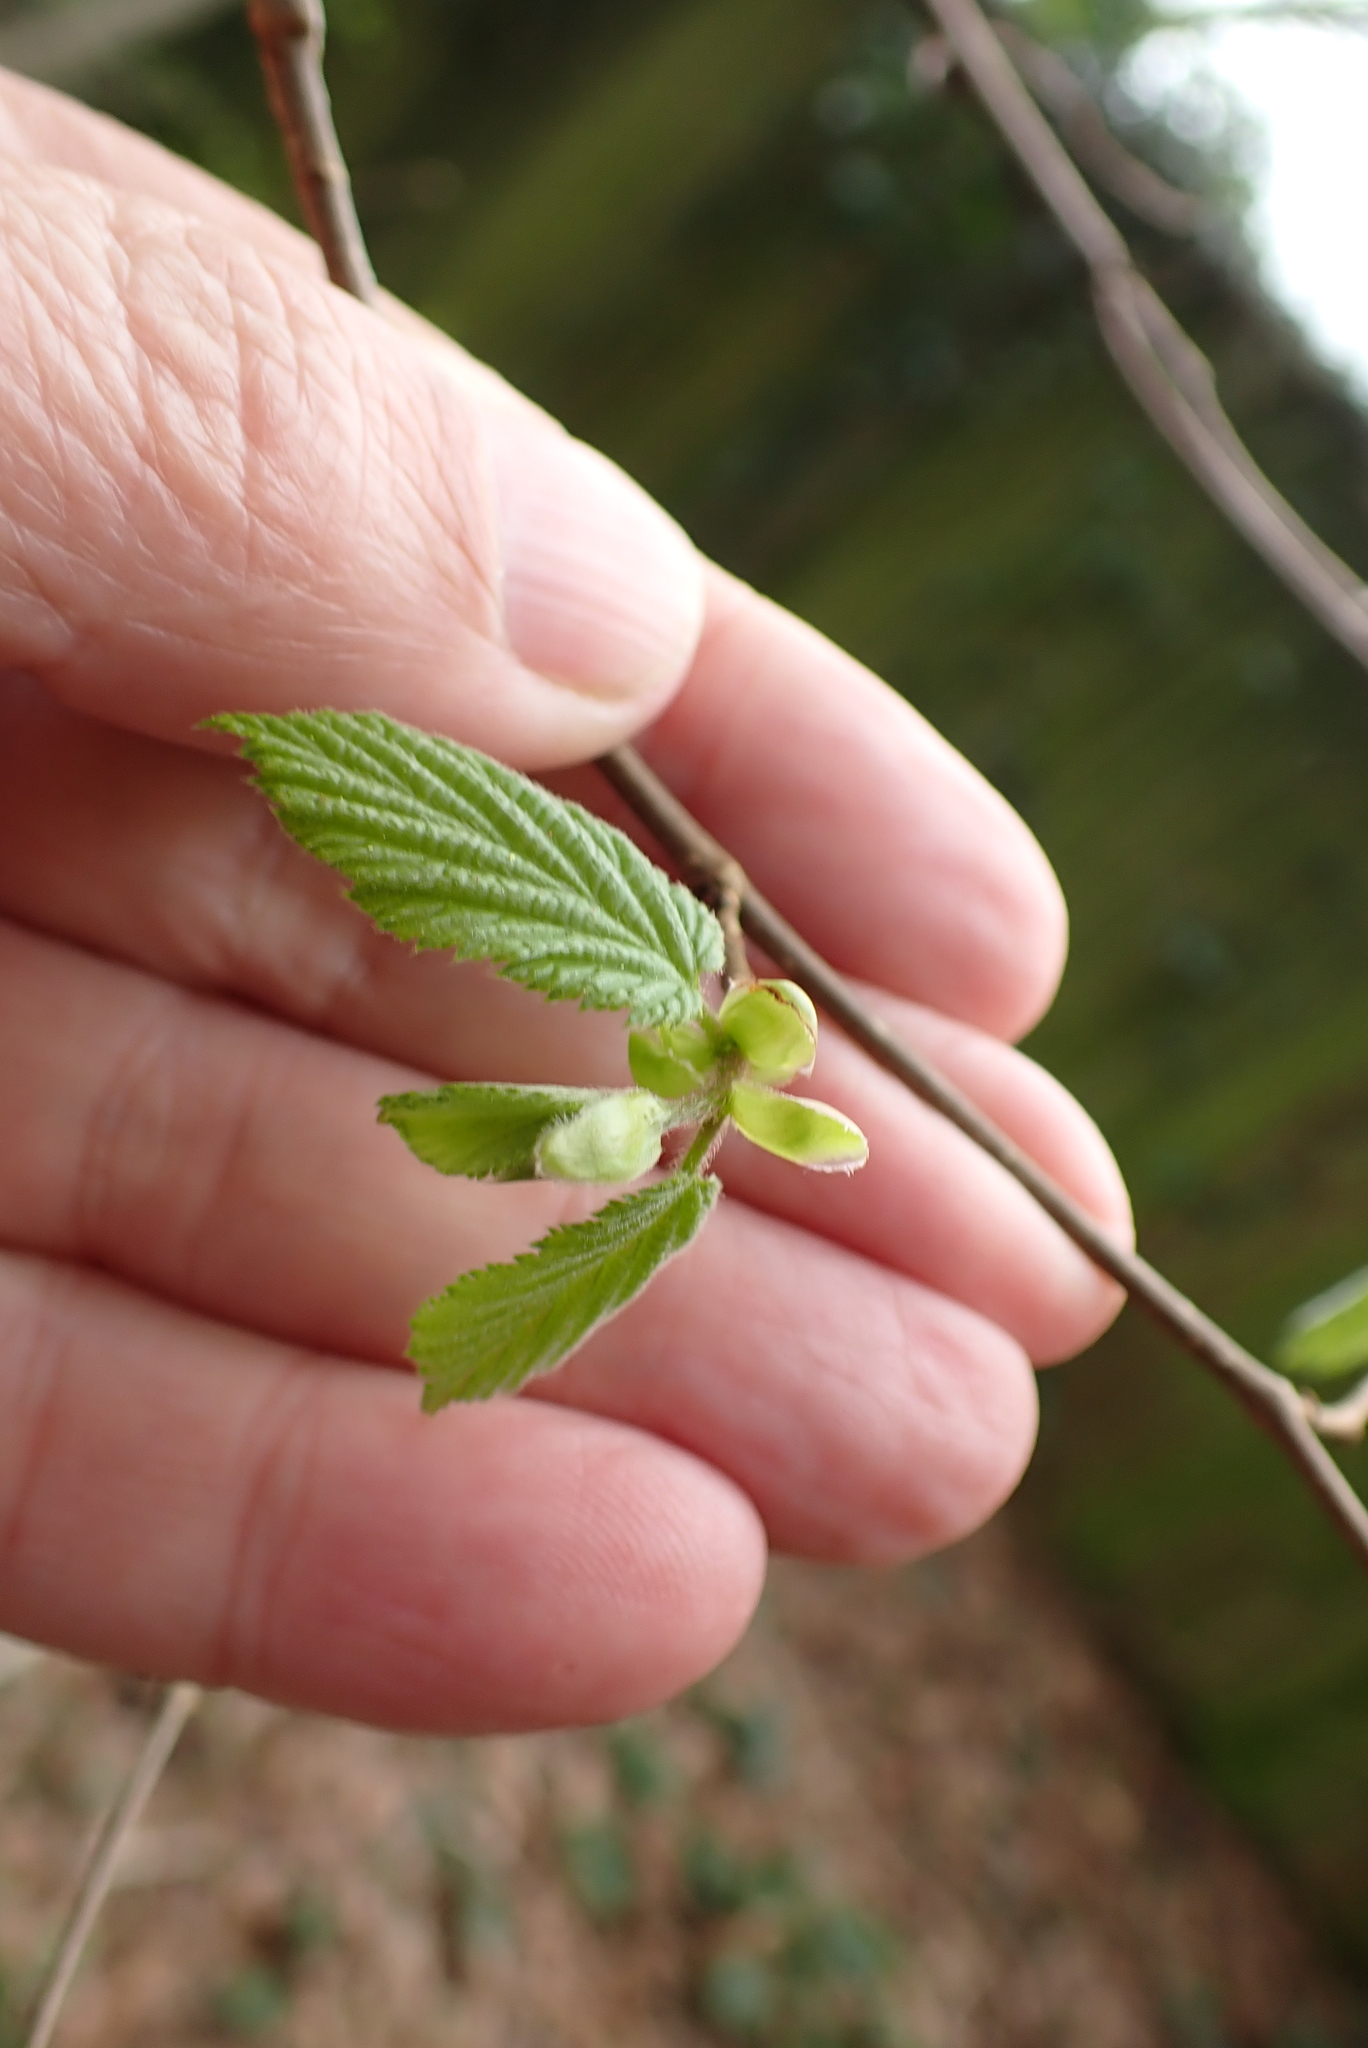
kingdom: Plantae
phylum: Tracheophyta
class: Magnoliopsida
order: Fagales
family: Betulaceae
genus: Corylus
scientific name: Corylus avellana
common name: European hazel
